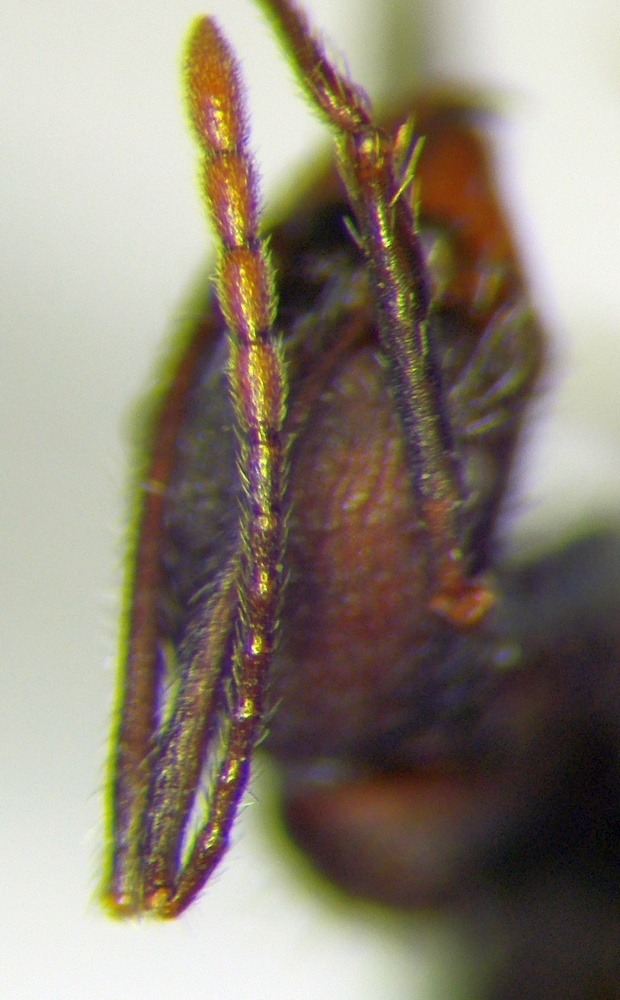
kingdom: Animalia
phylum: Arthropoda
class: Insecta
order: Hymenoptera
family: Formicidae
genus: Aphaenogaster
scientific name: Aphaenogaster simonellii
